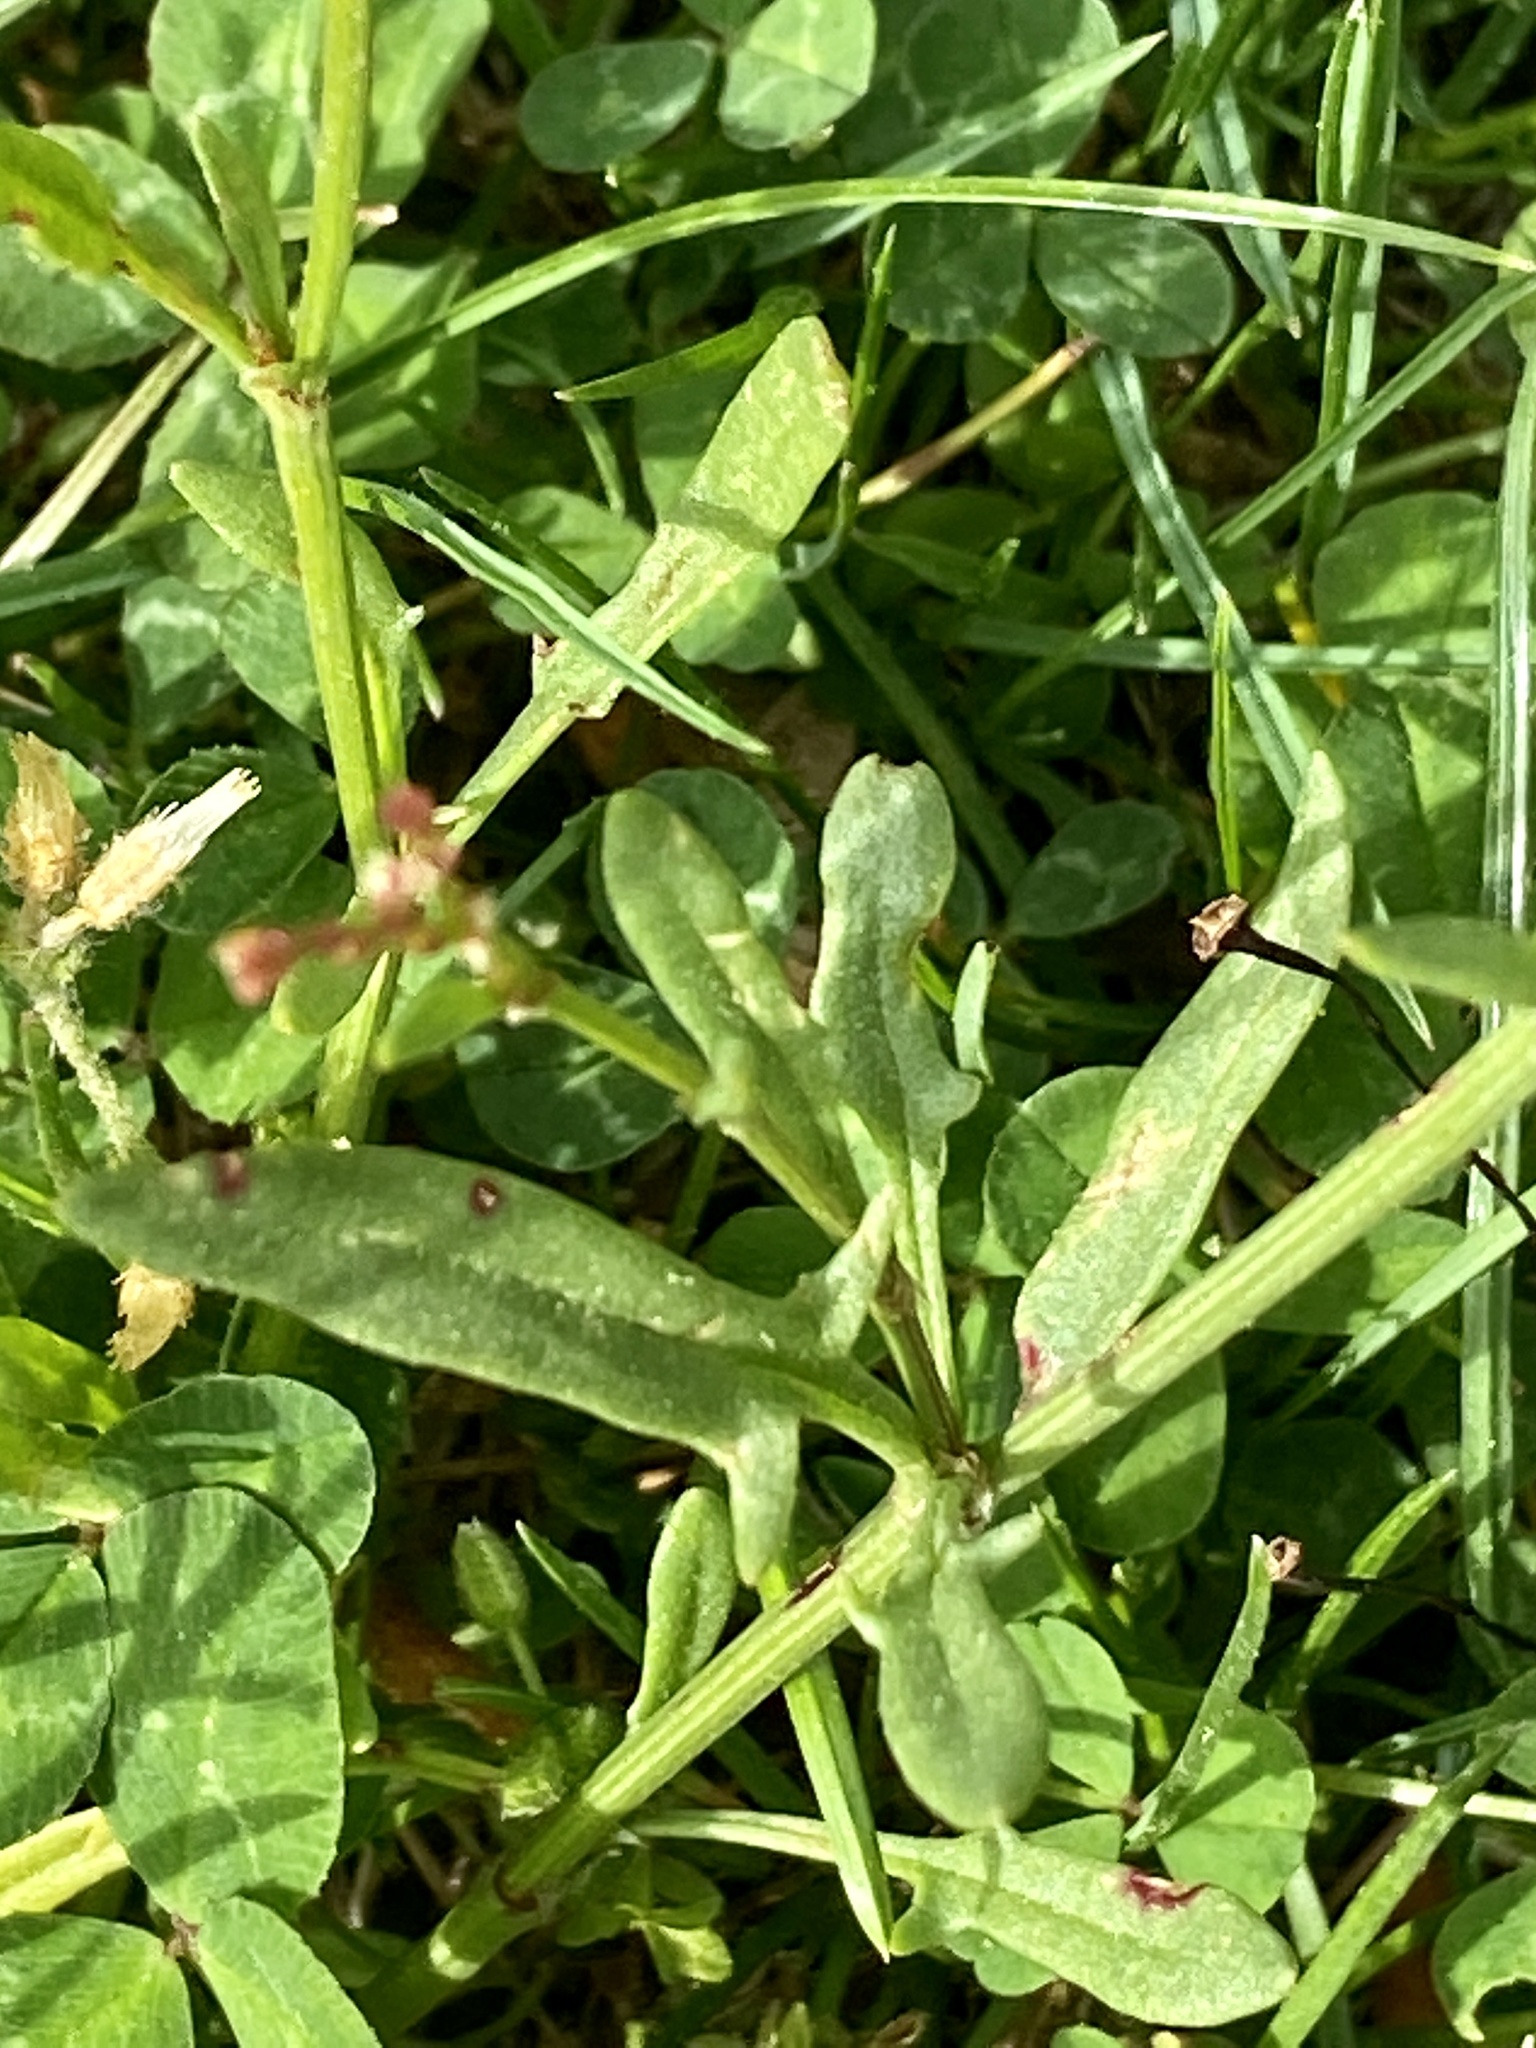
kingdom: Plantae
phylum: Tracheophyta
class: Magnoliopsida
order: Caryophyllales
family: Polygonaceae
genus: Rumex
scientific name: Rumex acetosella
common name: Common sheep sorrel
